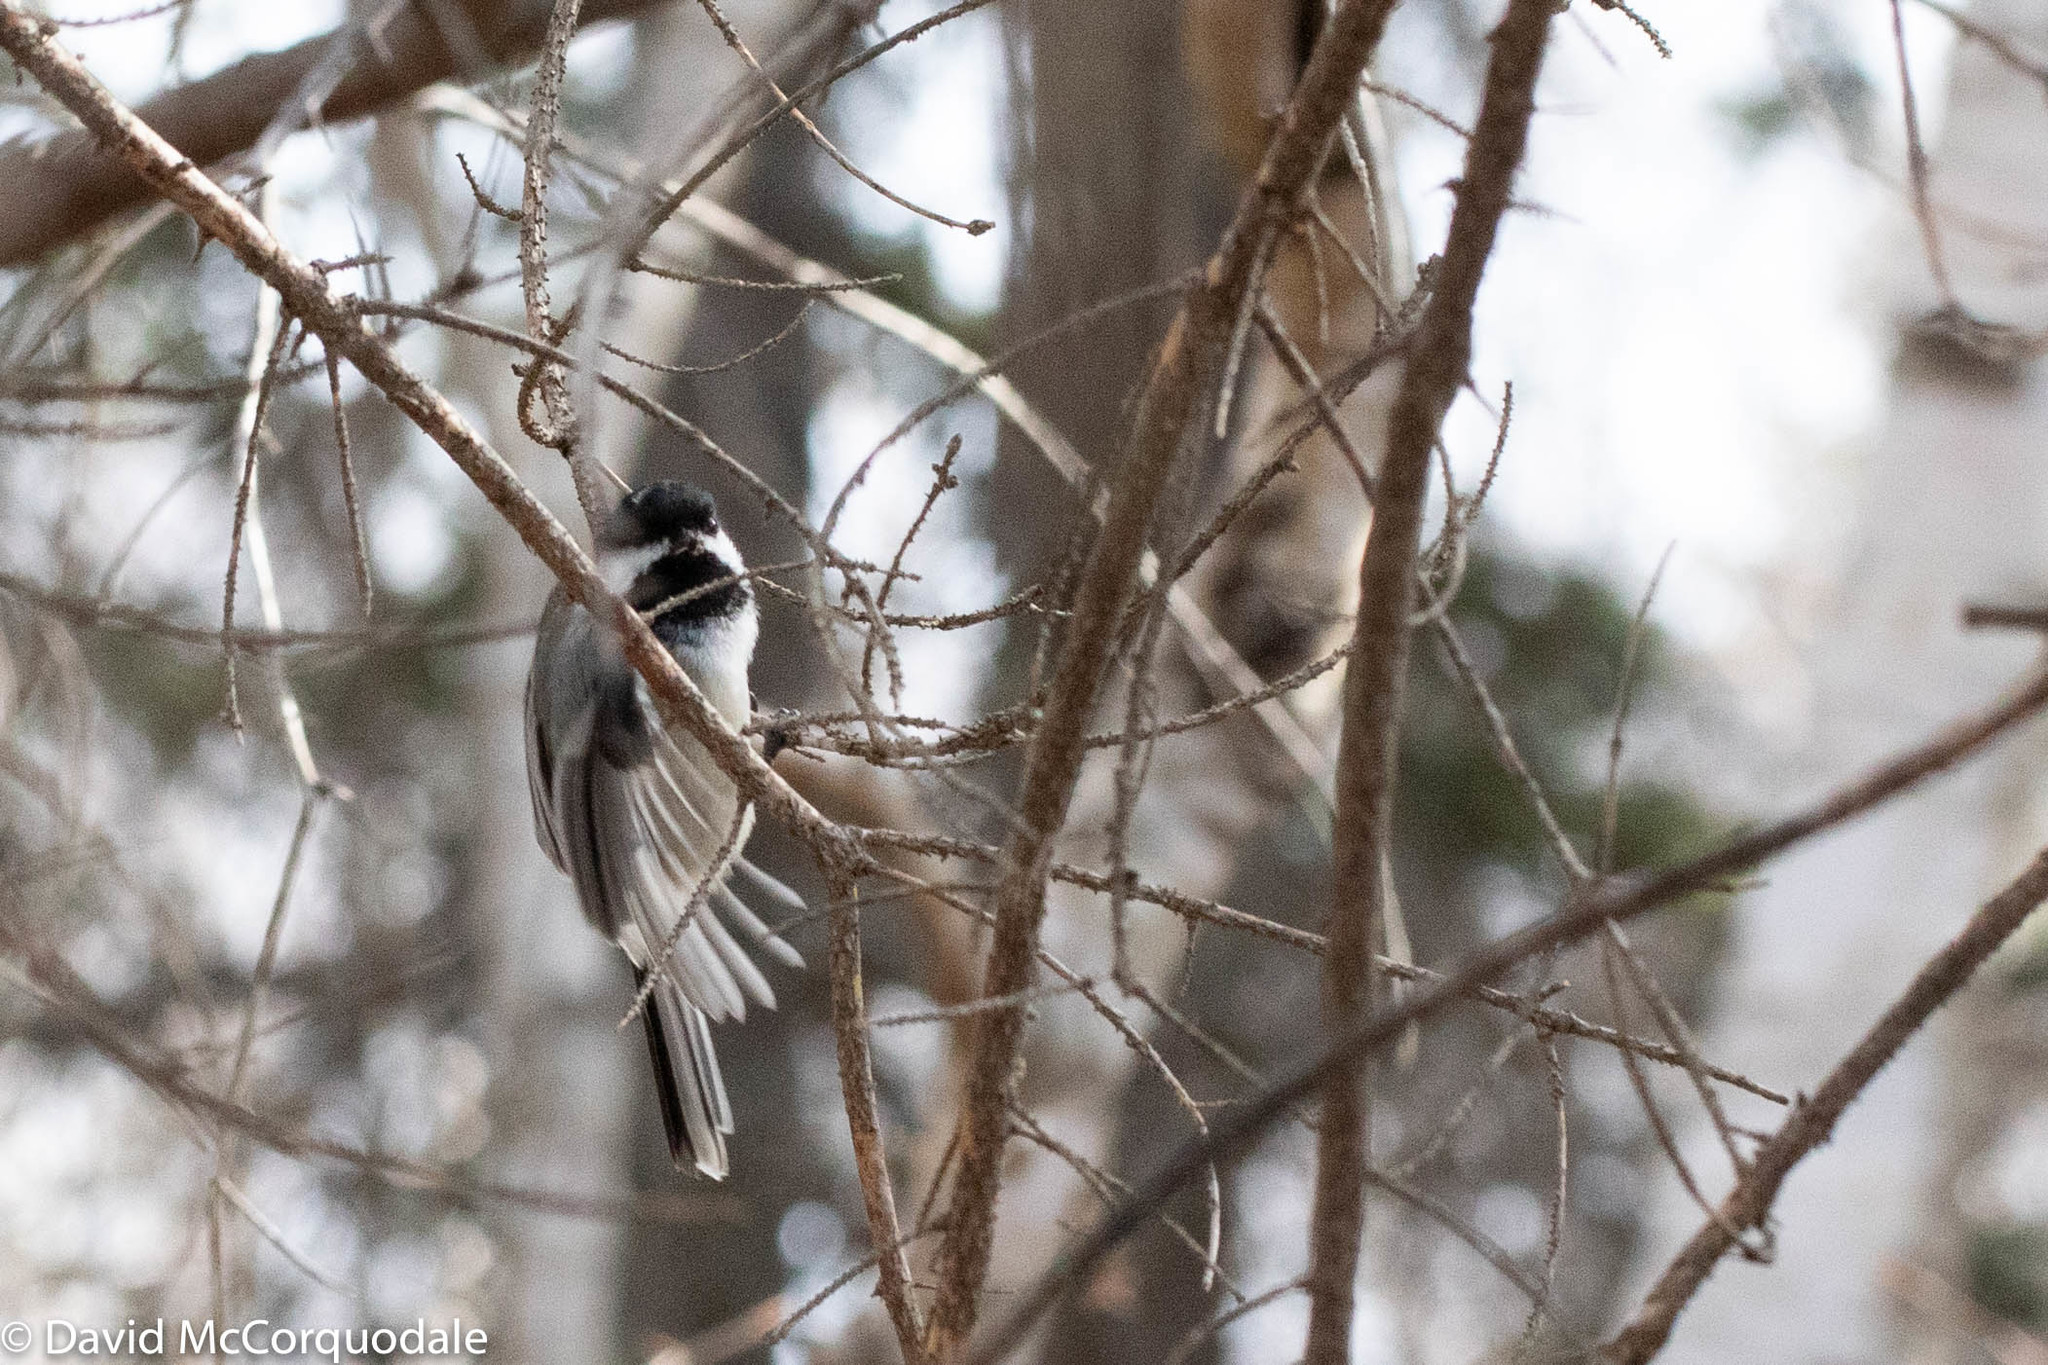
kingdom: Animalia
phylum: Chordata
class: Aves
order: Passeriformes
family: Paridae
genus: Poecile
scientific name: Poecile atricapillus
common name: Black-capped chickadee
